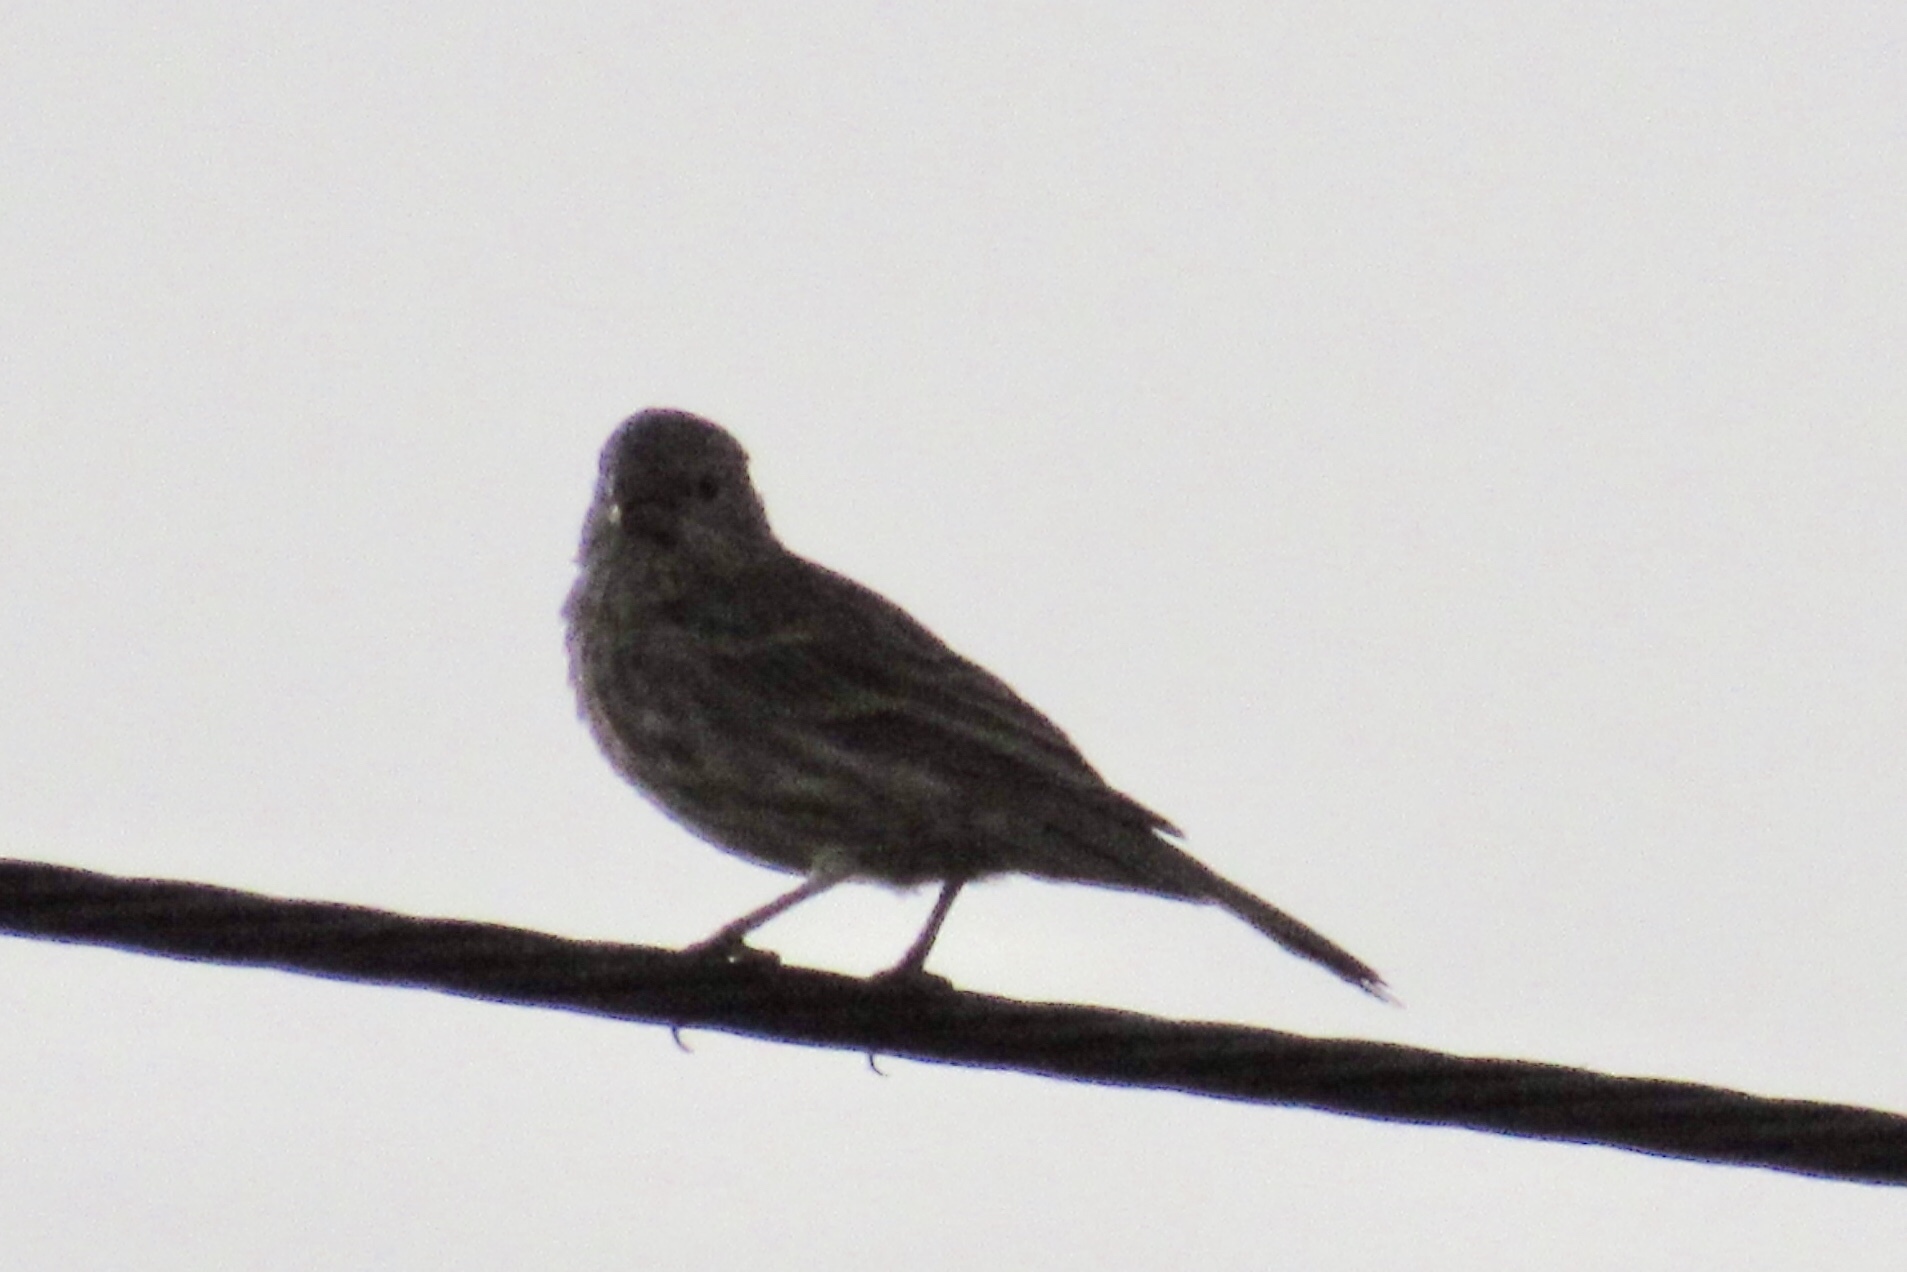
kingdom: Animalia
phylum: Chordata
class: Aves
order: Passeriformes
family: Fringillidae
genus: Haemorhous
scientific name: Haemorhous mexicanus
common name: House finch
